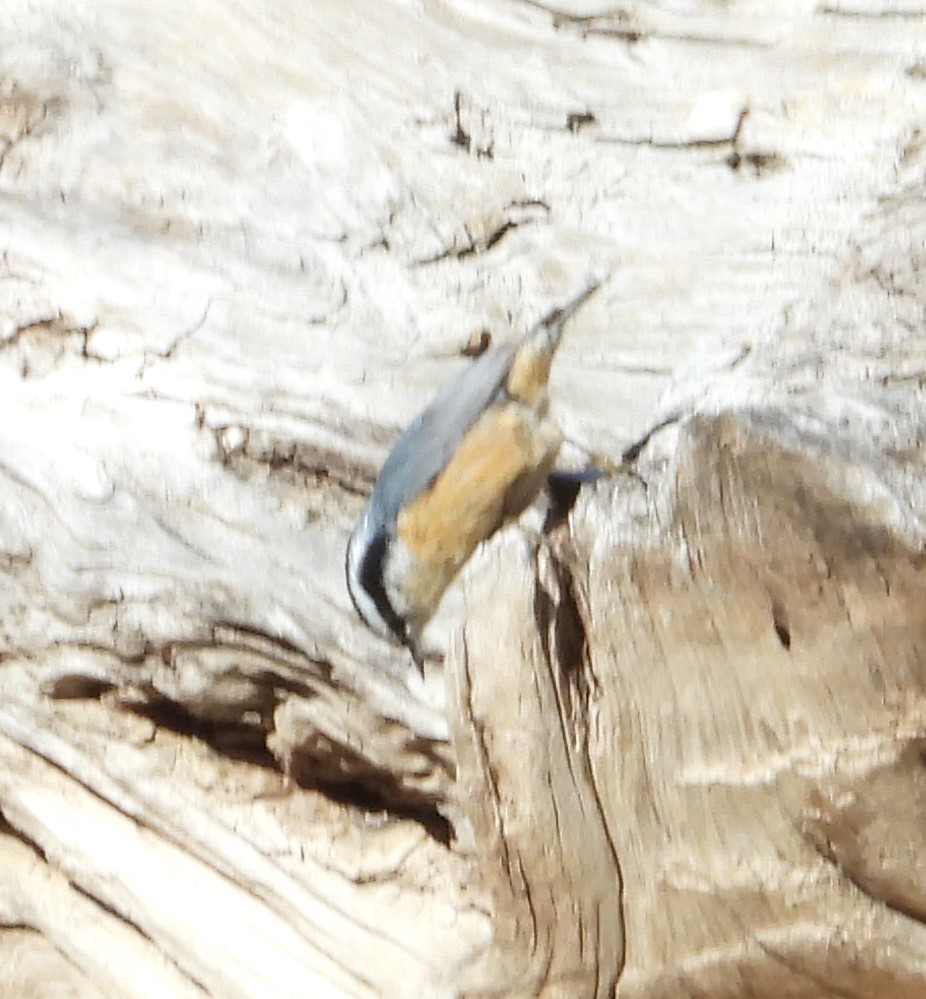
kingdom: Animalia
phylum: Chordata
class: Aves
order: Passeriformes
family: Sittidae
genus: Sitta
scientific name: Sitta canadensis
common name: Red-breasted nuthatch
